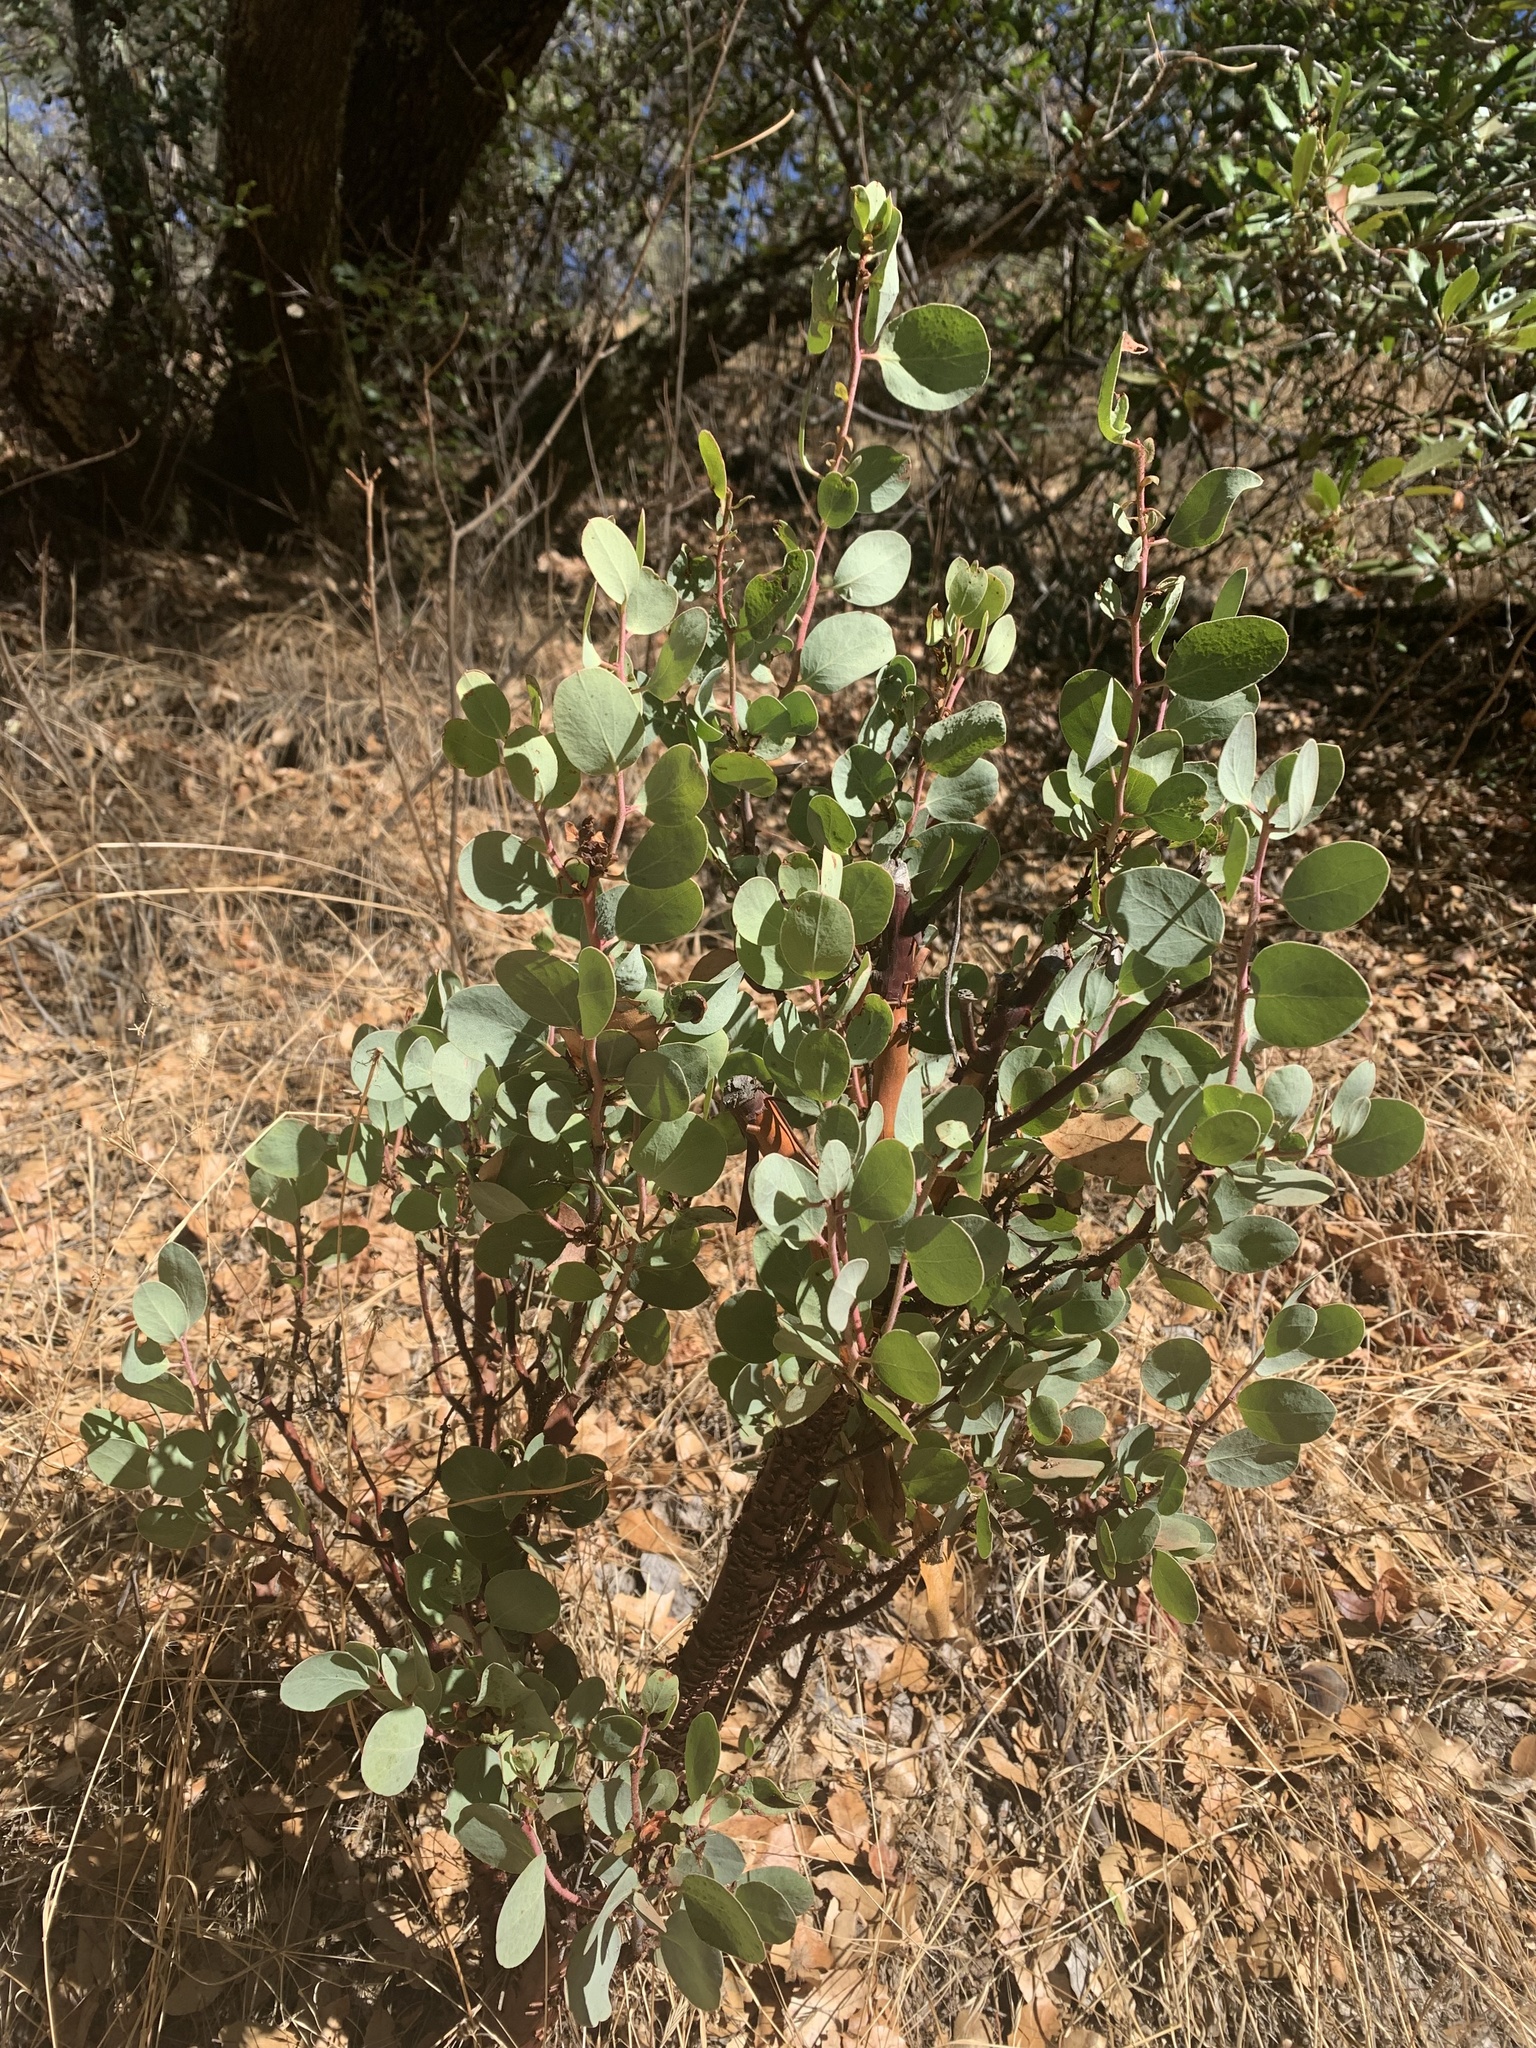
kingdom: Plantae
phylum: Tracheophyta
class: Magnoliopsida
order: Ericales
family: Ericaceae
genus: Arctostaphylos
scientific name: Arctostaphylos viscida
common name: White-leaf manzanita
